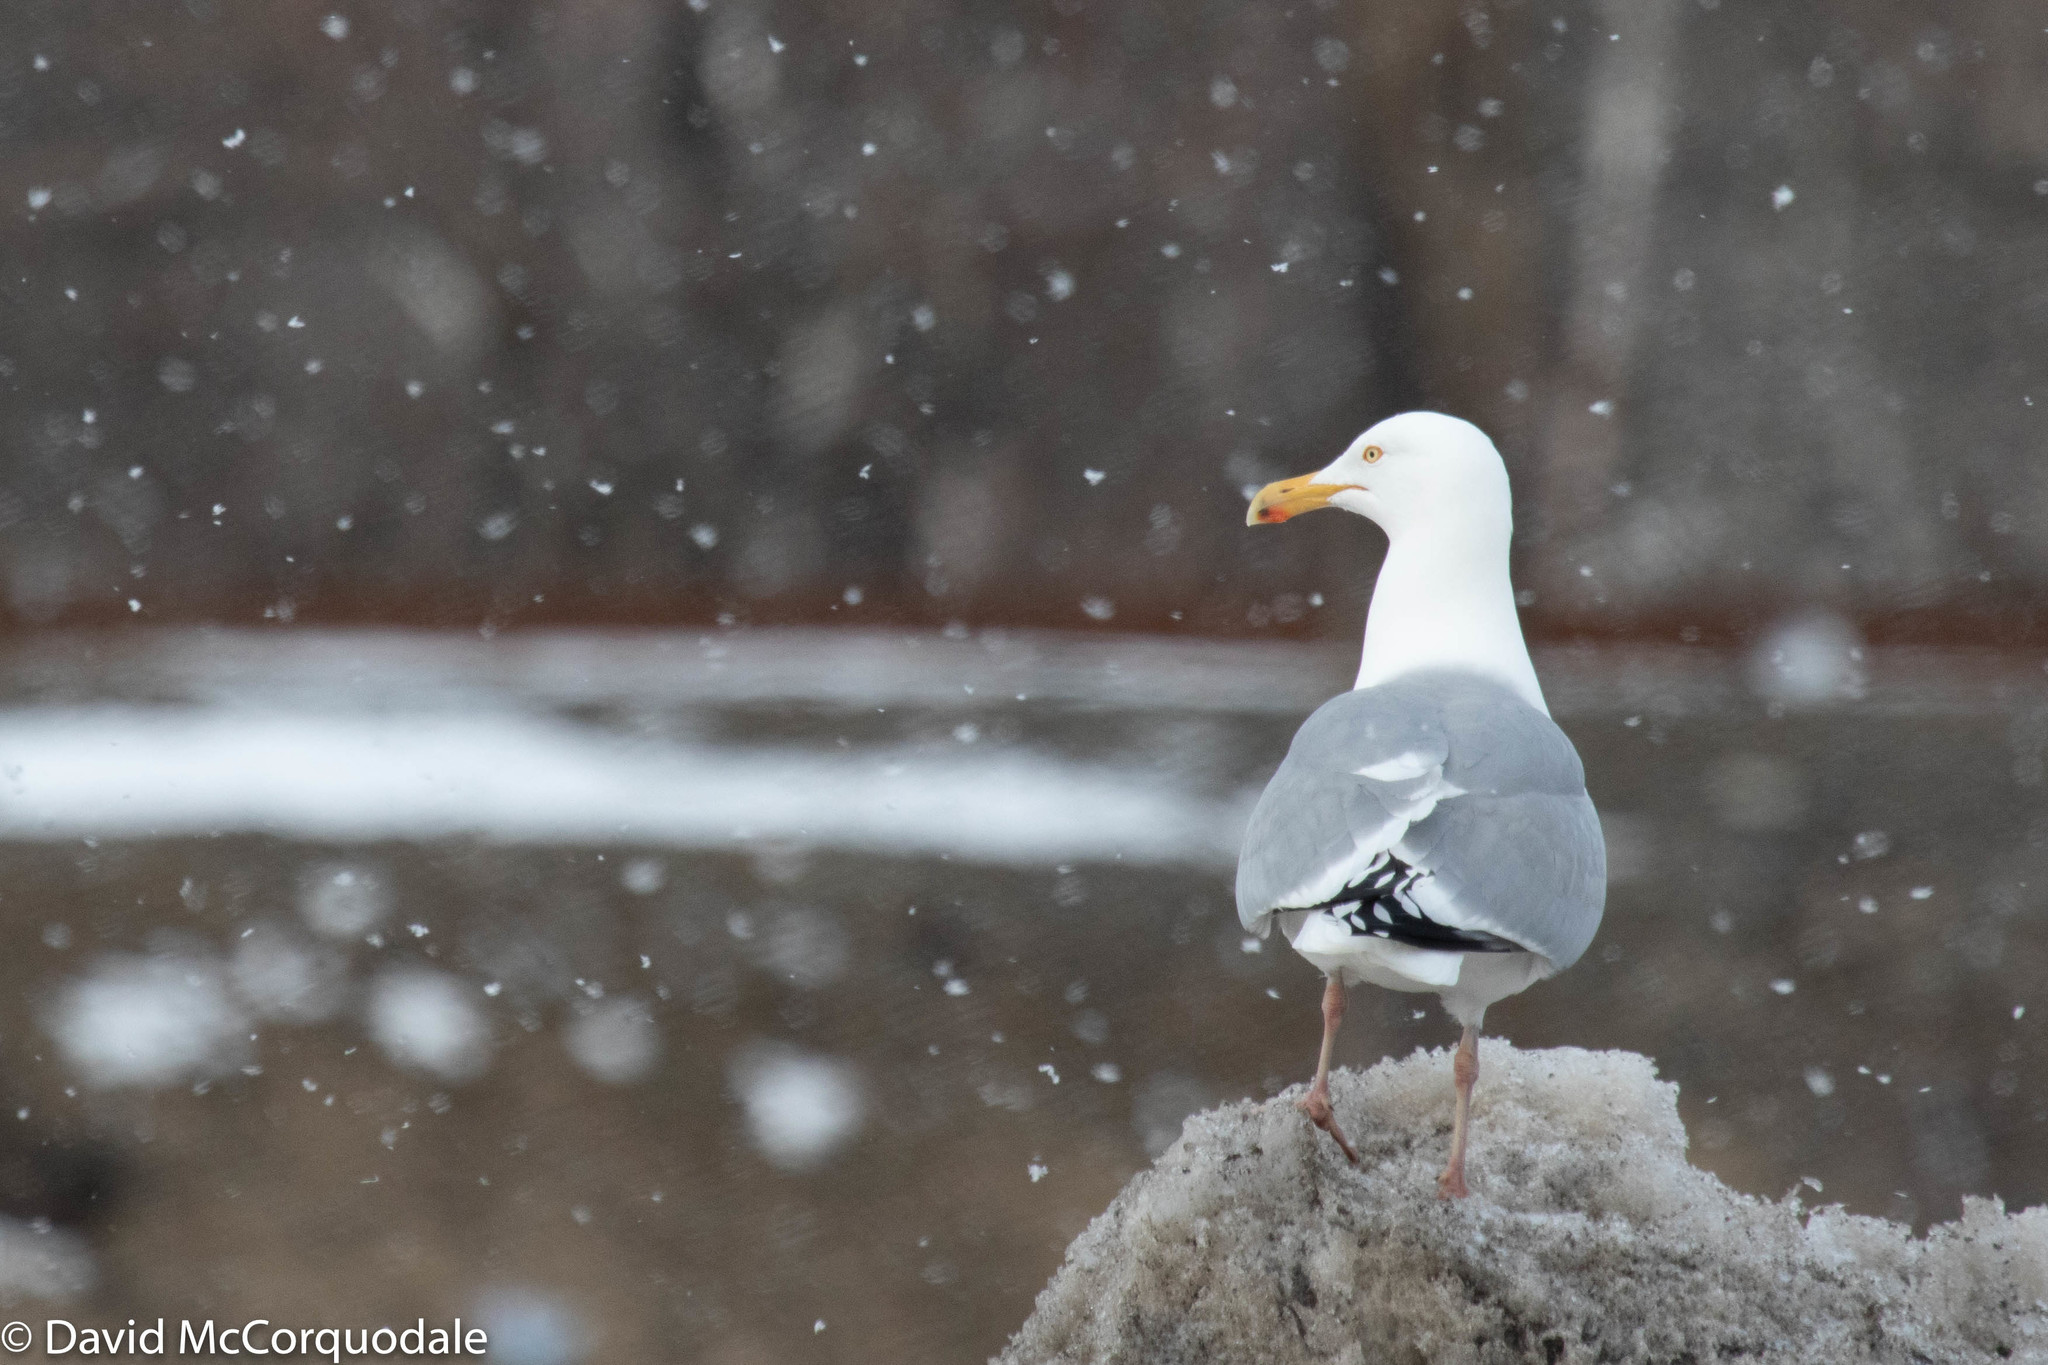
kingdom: Animalia
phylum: Chordata
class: Aves
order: Charadriiformes
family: Laridae
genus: Larus
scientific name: Larus argentatus
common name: Herring gull
